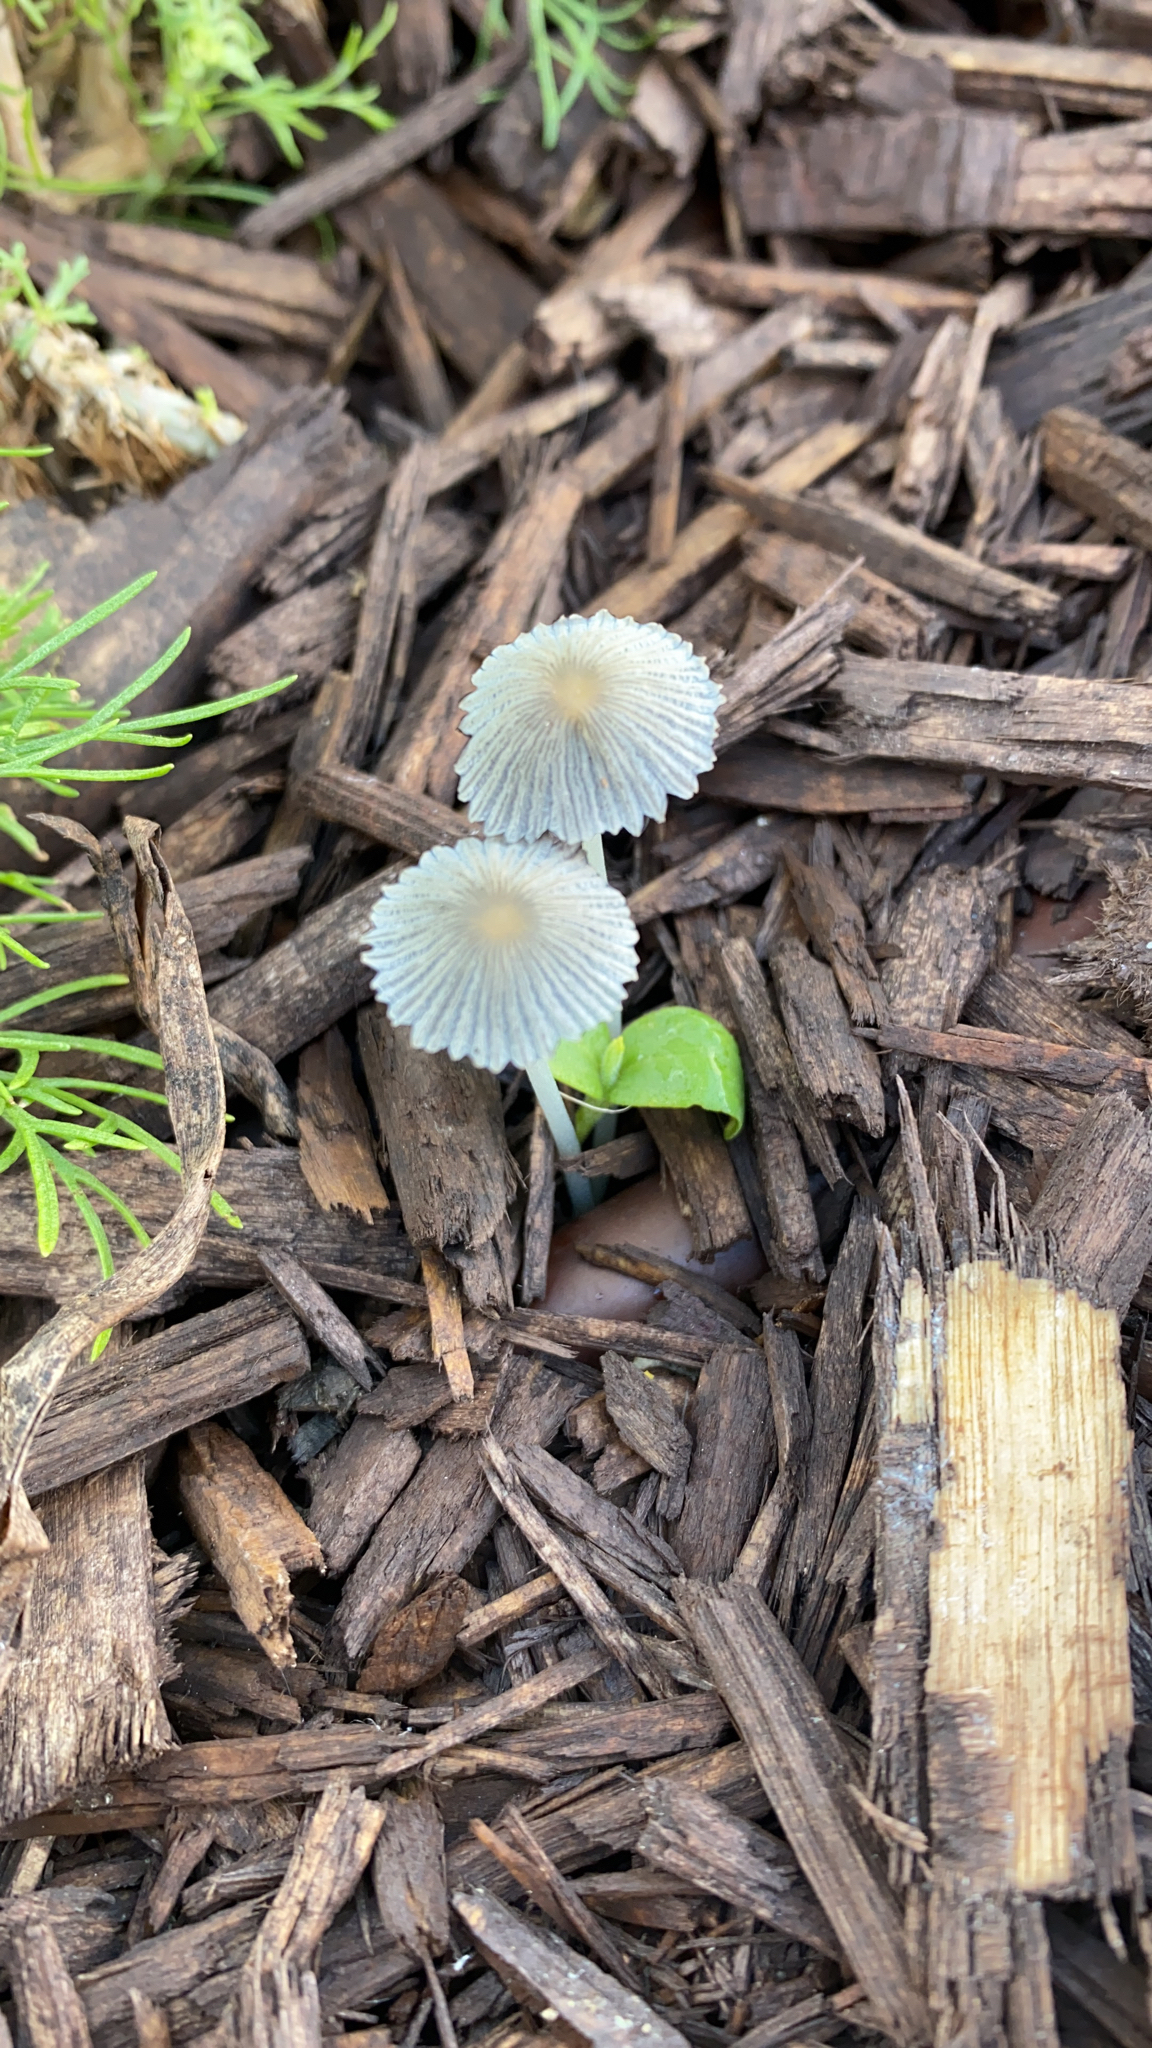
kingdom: Fungi
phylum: Basidiomycota
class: Agaricomycetes
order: Agaricales
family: Psathyrellaceae
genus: Parasola
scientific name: Parasola plicatilis
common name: Pleated inkcap
